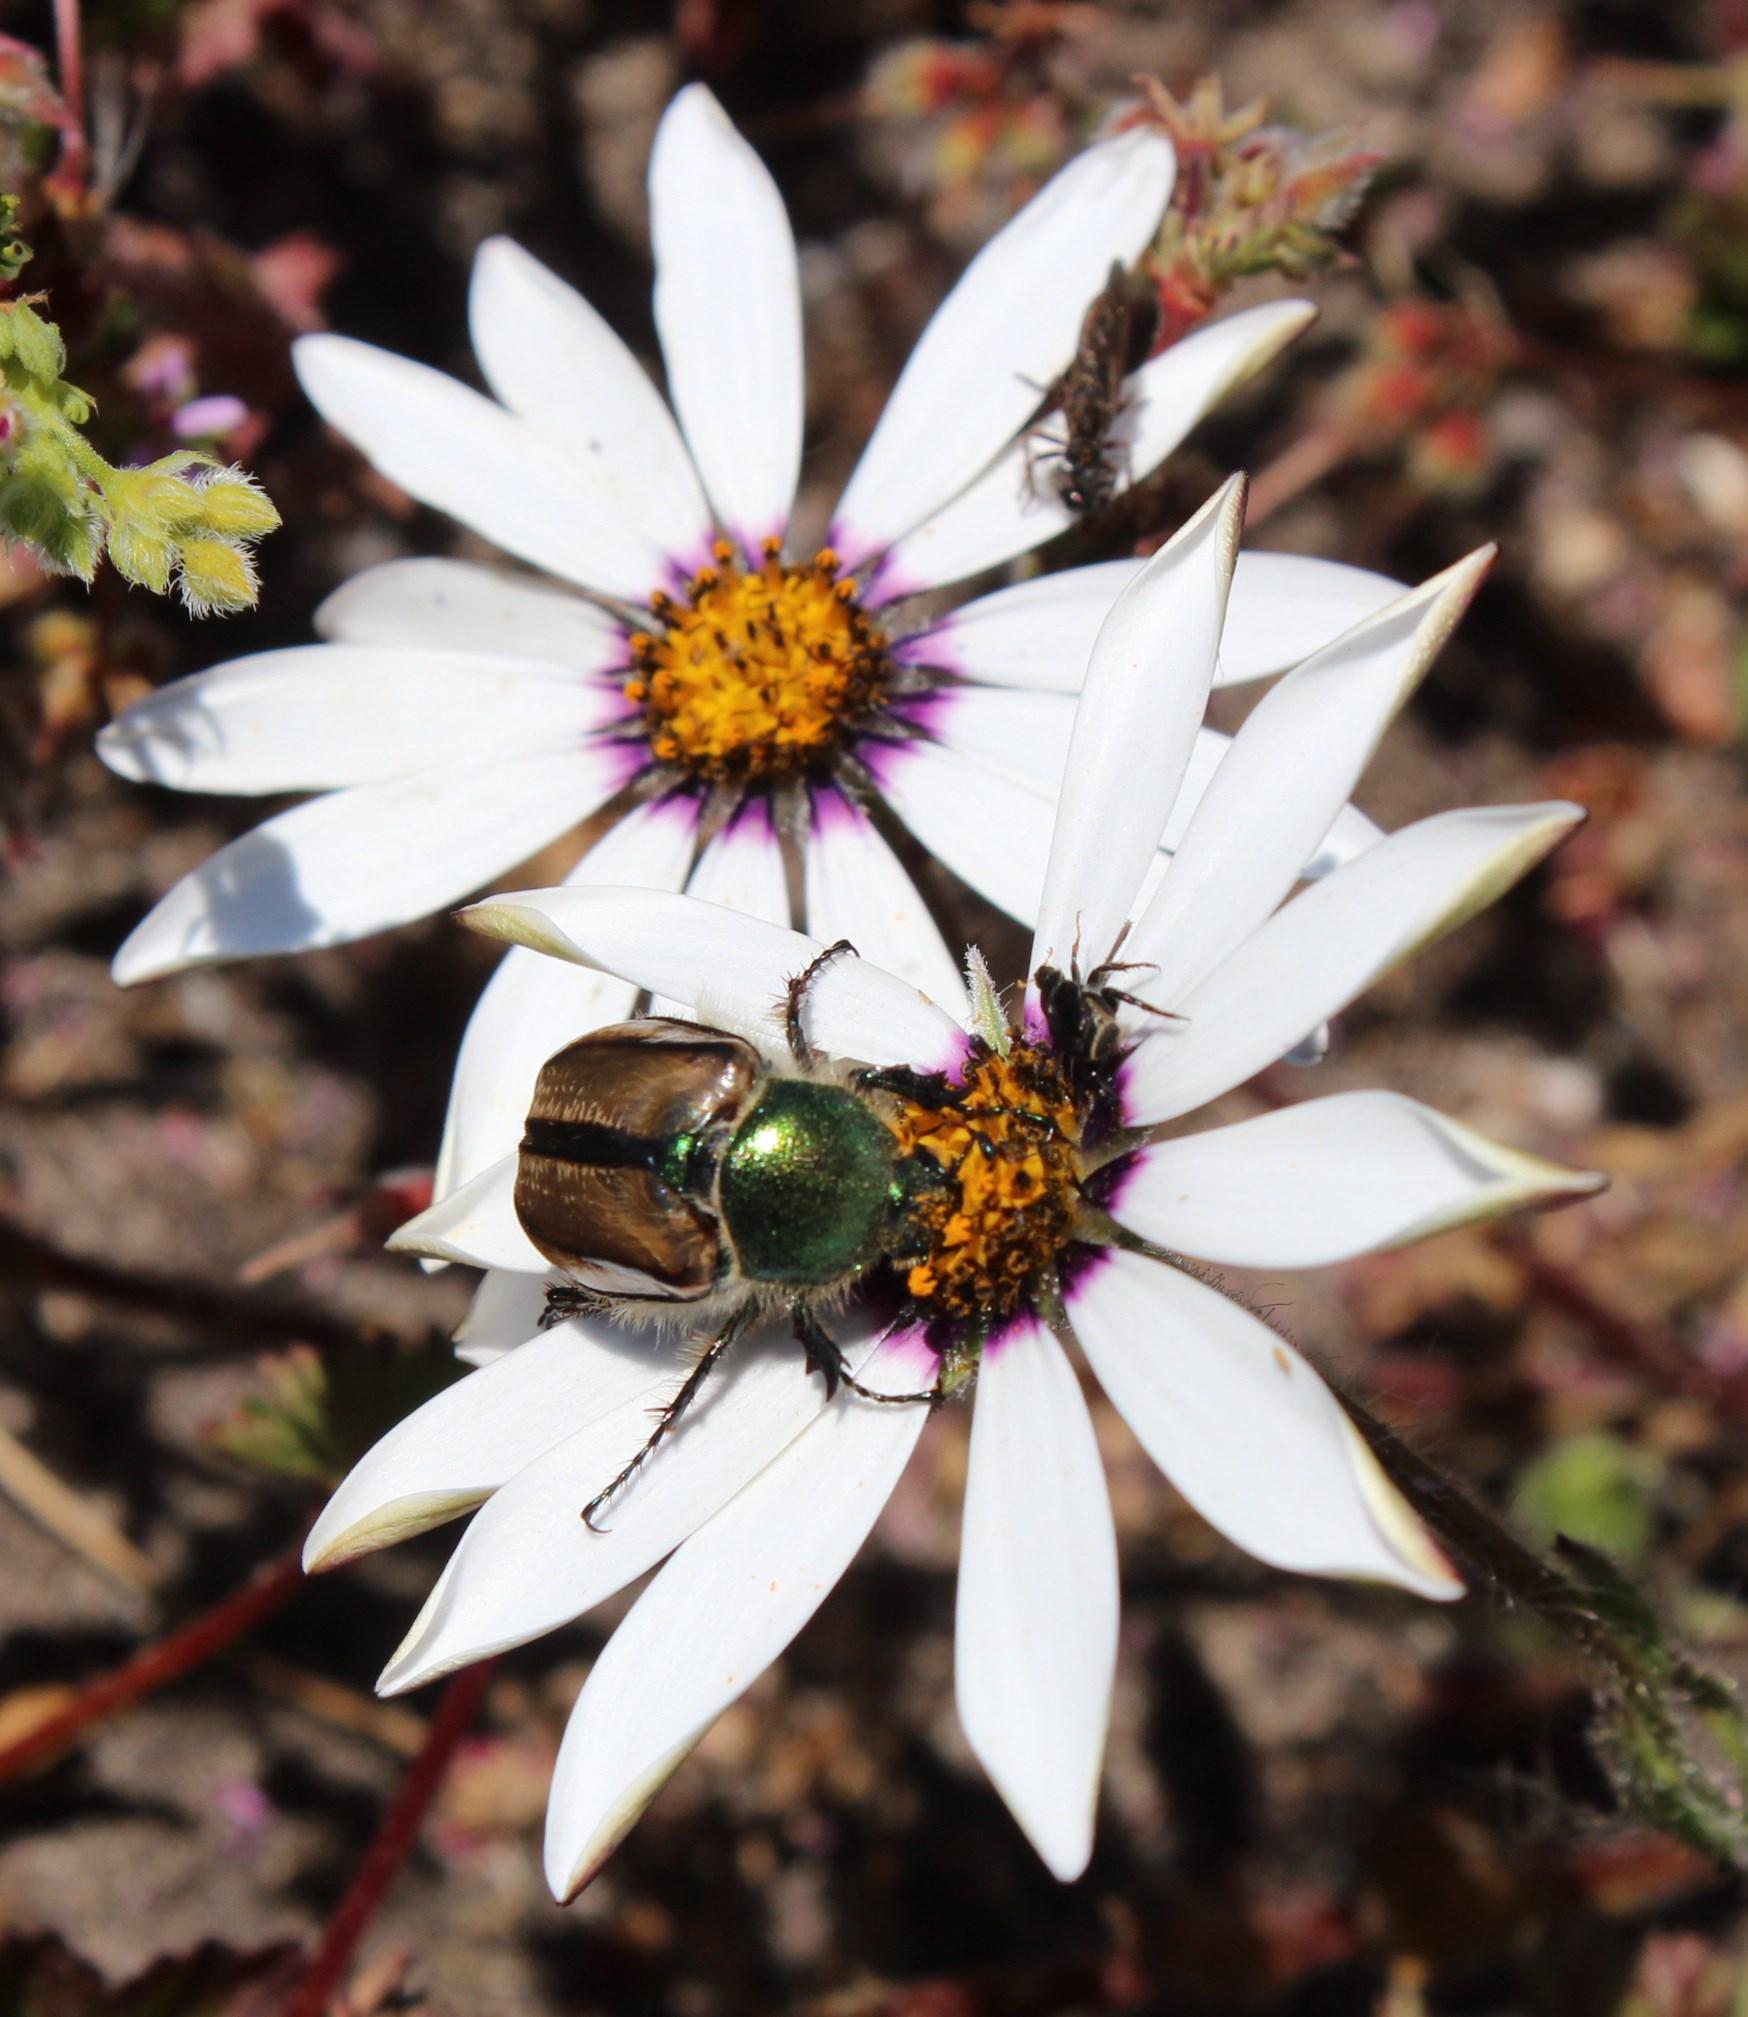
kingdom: Animalia
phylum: Arthropoda
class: Insecta
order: Coleoptera
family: Scarabaeidae
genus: Stegopterus
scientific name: Stegopterus vittatus
